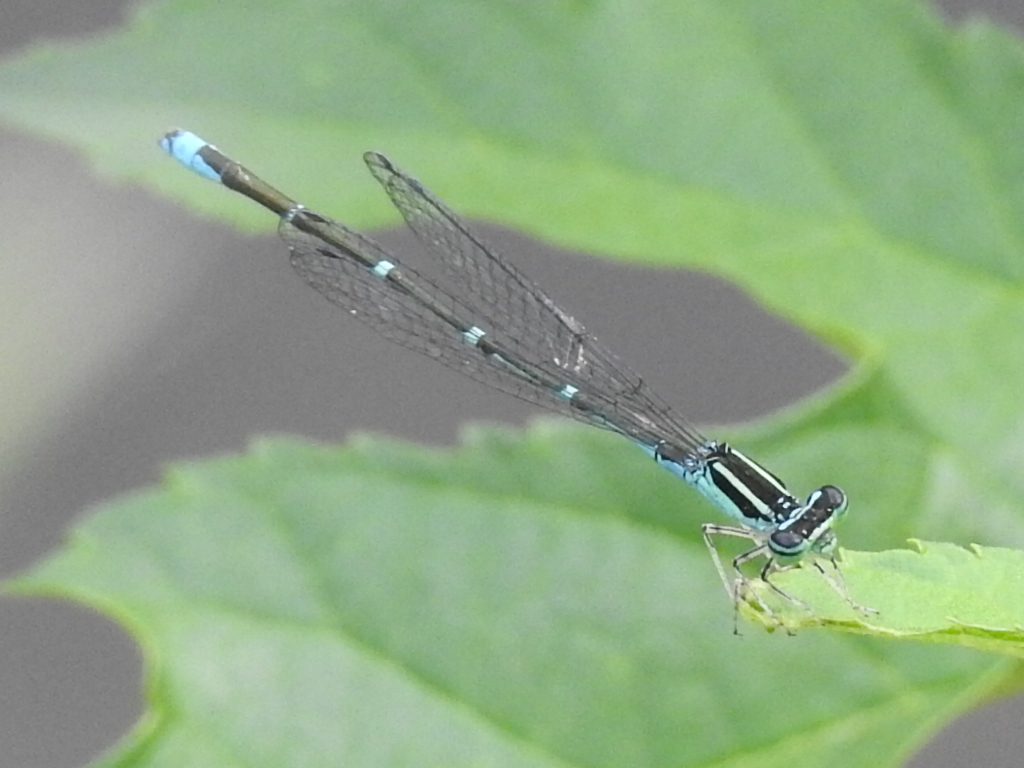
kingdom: Animalia
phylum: Arthropoda
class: Insecta
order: Odonata
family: Coenagrionidae
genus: Enallagma
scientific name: Enallagma exsulans
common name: Stream bluet
